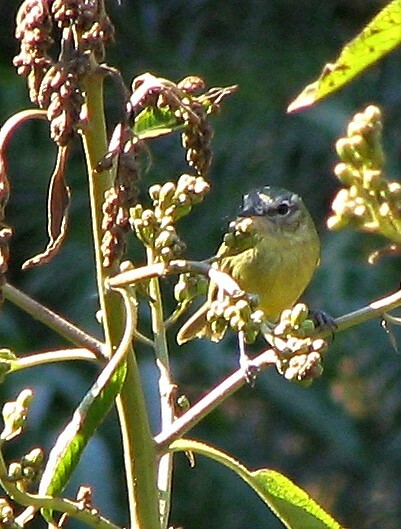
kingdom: Animalia
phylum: Chordata
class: Aves
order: Passeriformes
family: Tyrannidae
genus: Phylloscartes
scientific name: Phylloscartes ventralis
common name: Mottle-cheeked tyrannulet
